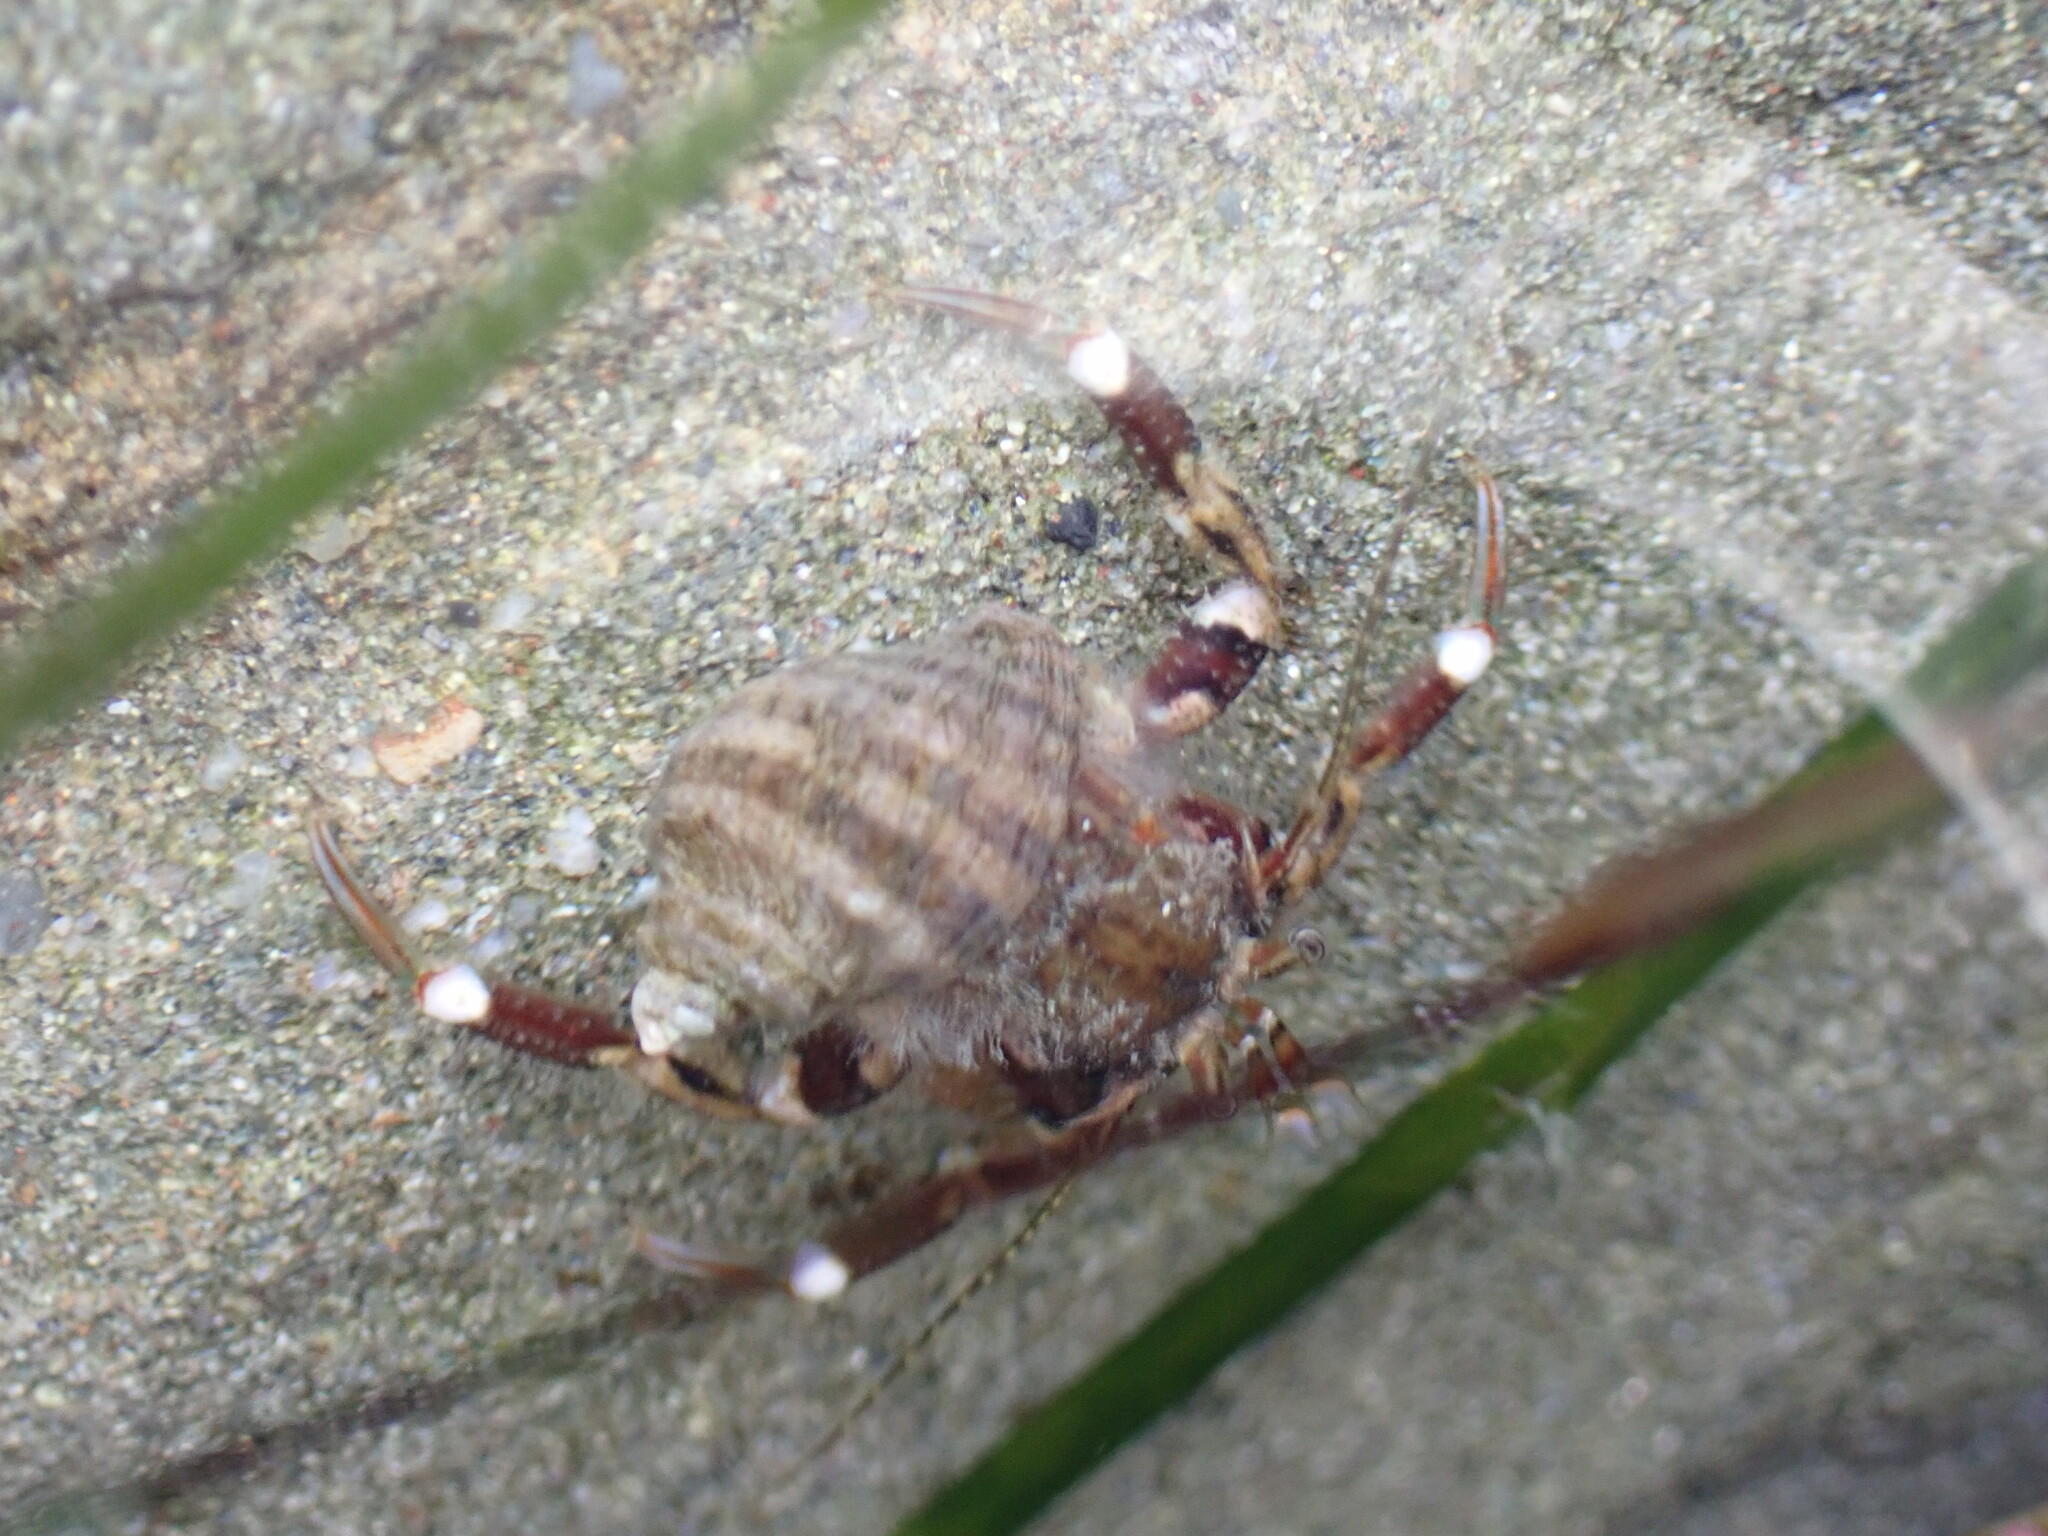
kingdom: Animalia
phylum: Arthropoda
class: Malacostraca
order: Decapoda
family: Paguridae
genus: Pagurus
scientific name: Pagurus hirsutiusculus
